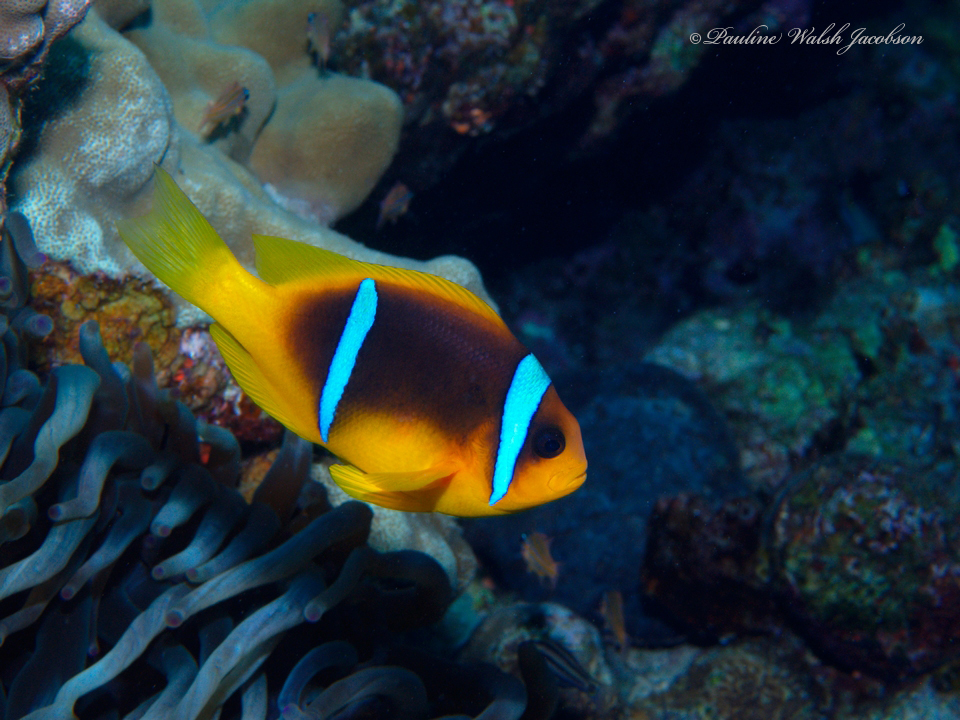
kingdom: Animalia
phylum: Chordata
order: Perciformes
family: Pomacentridae
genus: Amphiprion
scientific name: Amphiprion bicinctus
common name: Two-banded anemonefish
